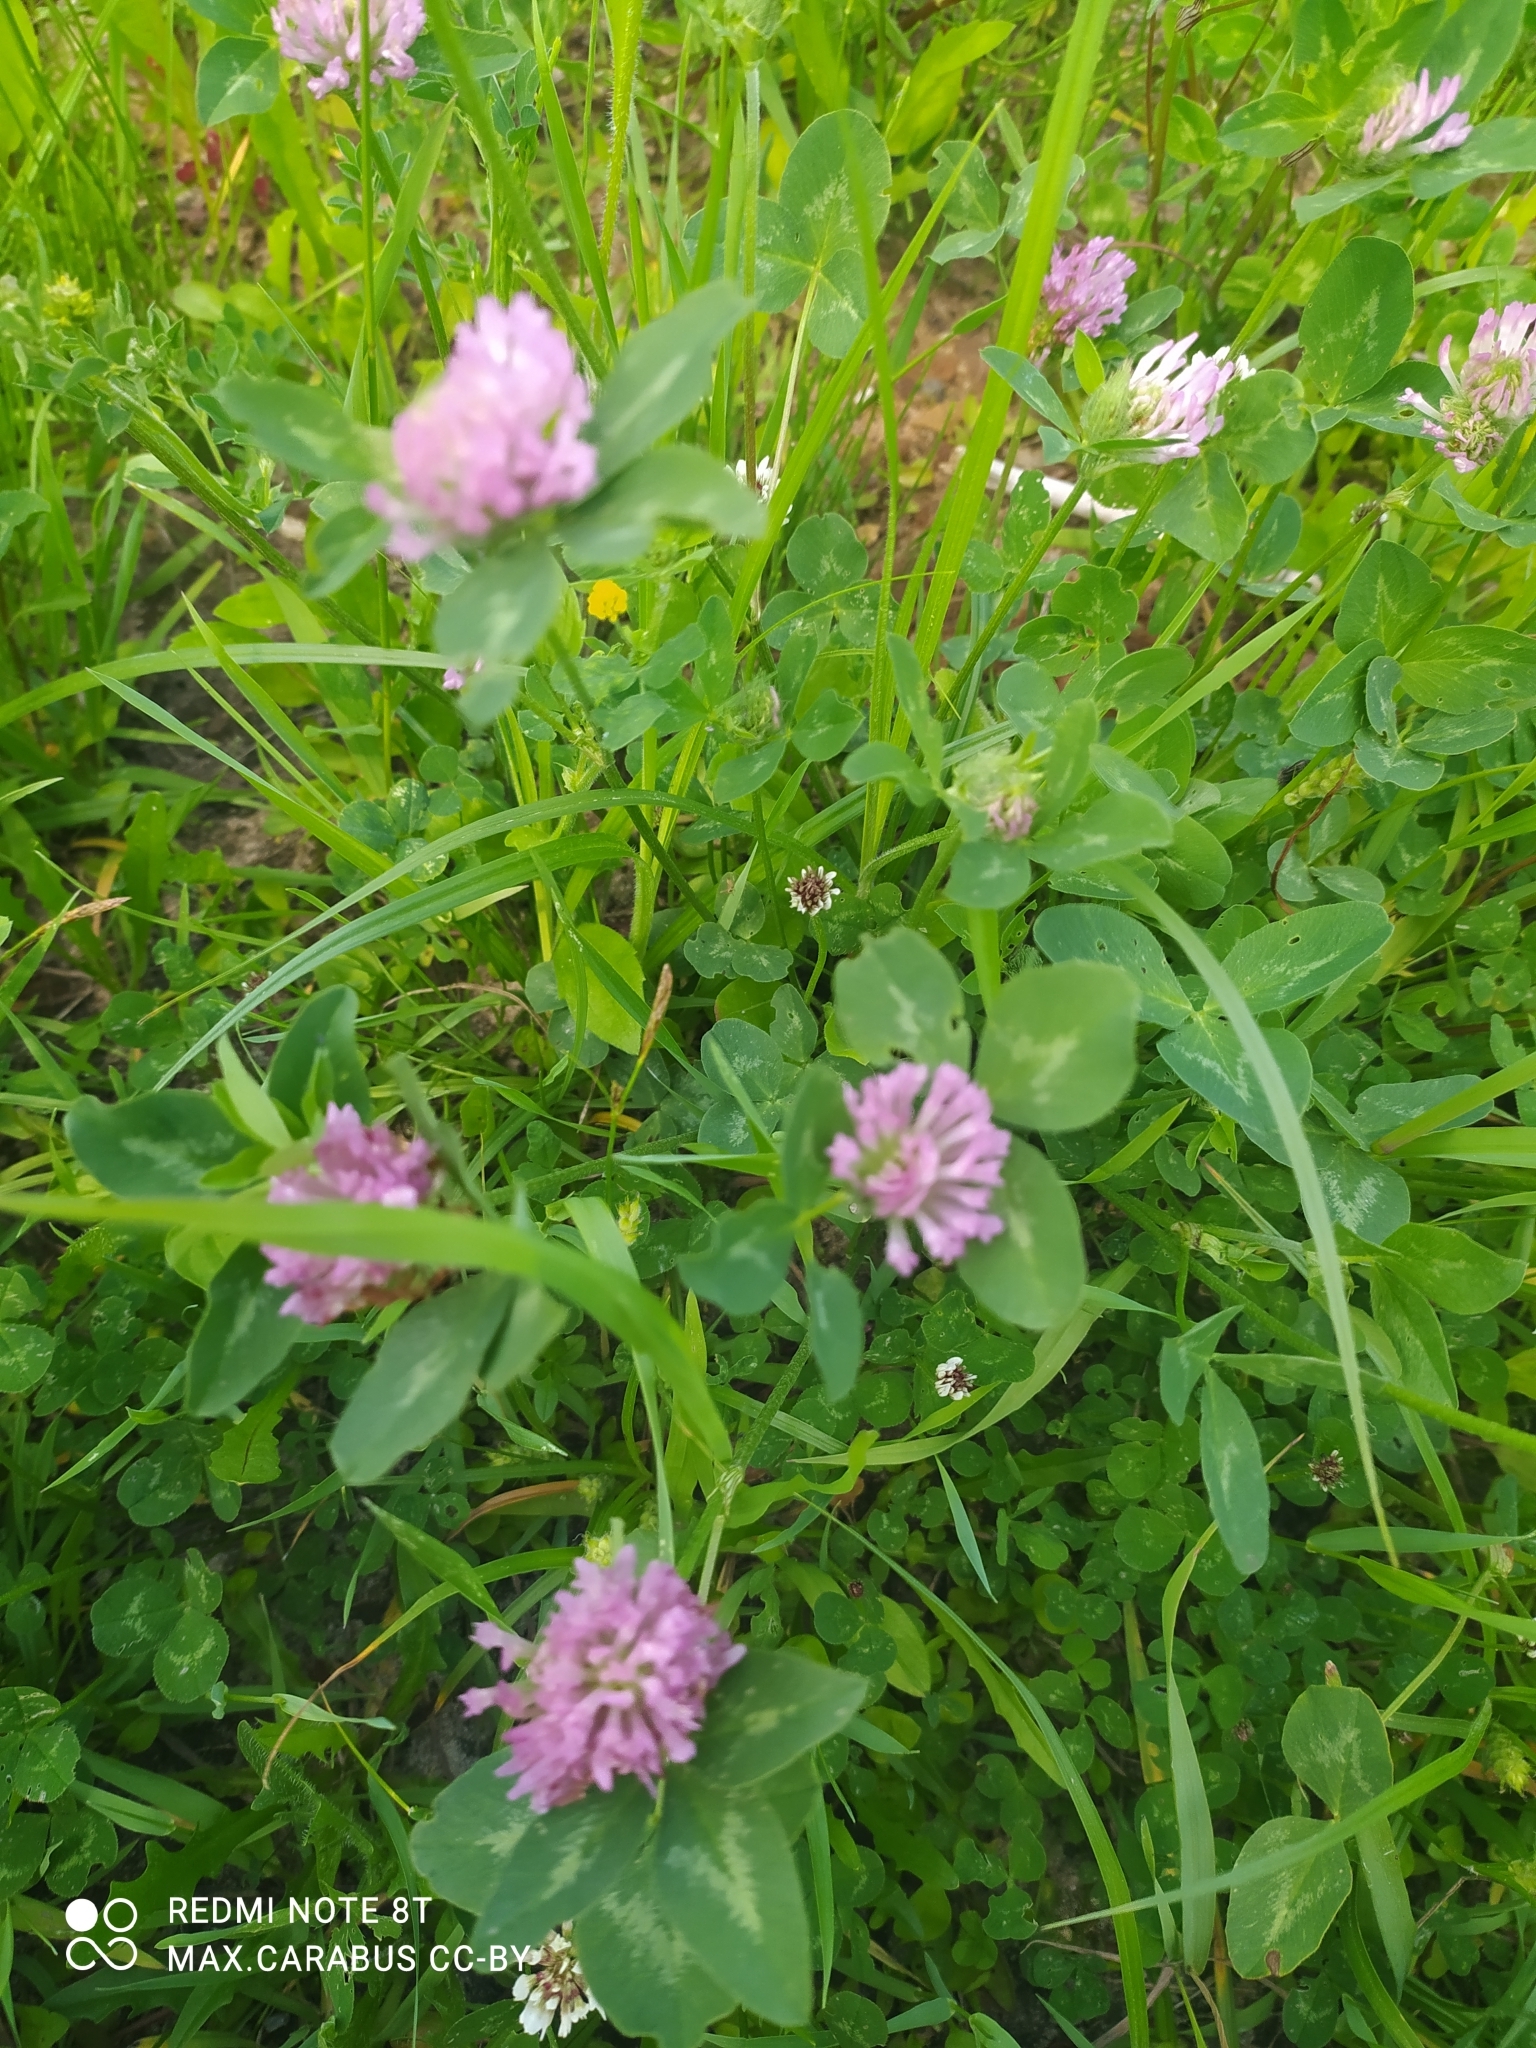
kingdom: Plantae
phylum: Tracheophyta
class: Magnoliopsida
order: Fabales
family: Fabaceae
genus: Trifolium
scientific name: Trifolium pratense
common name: Red clover
